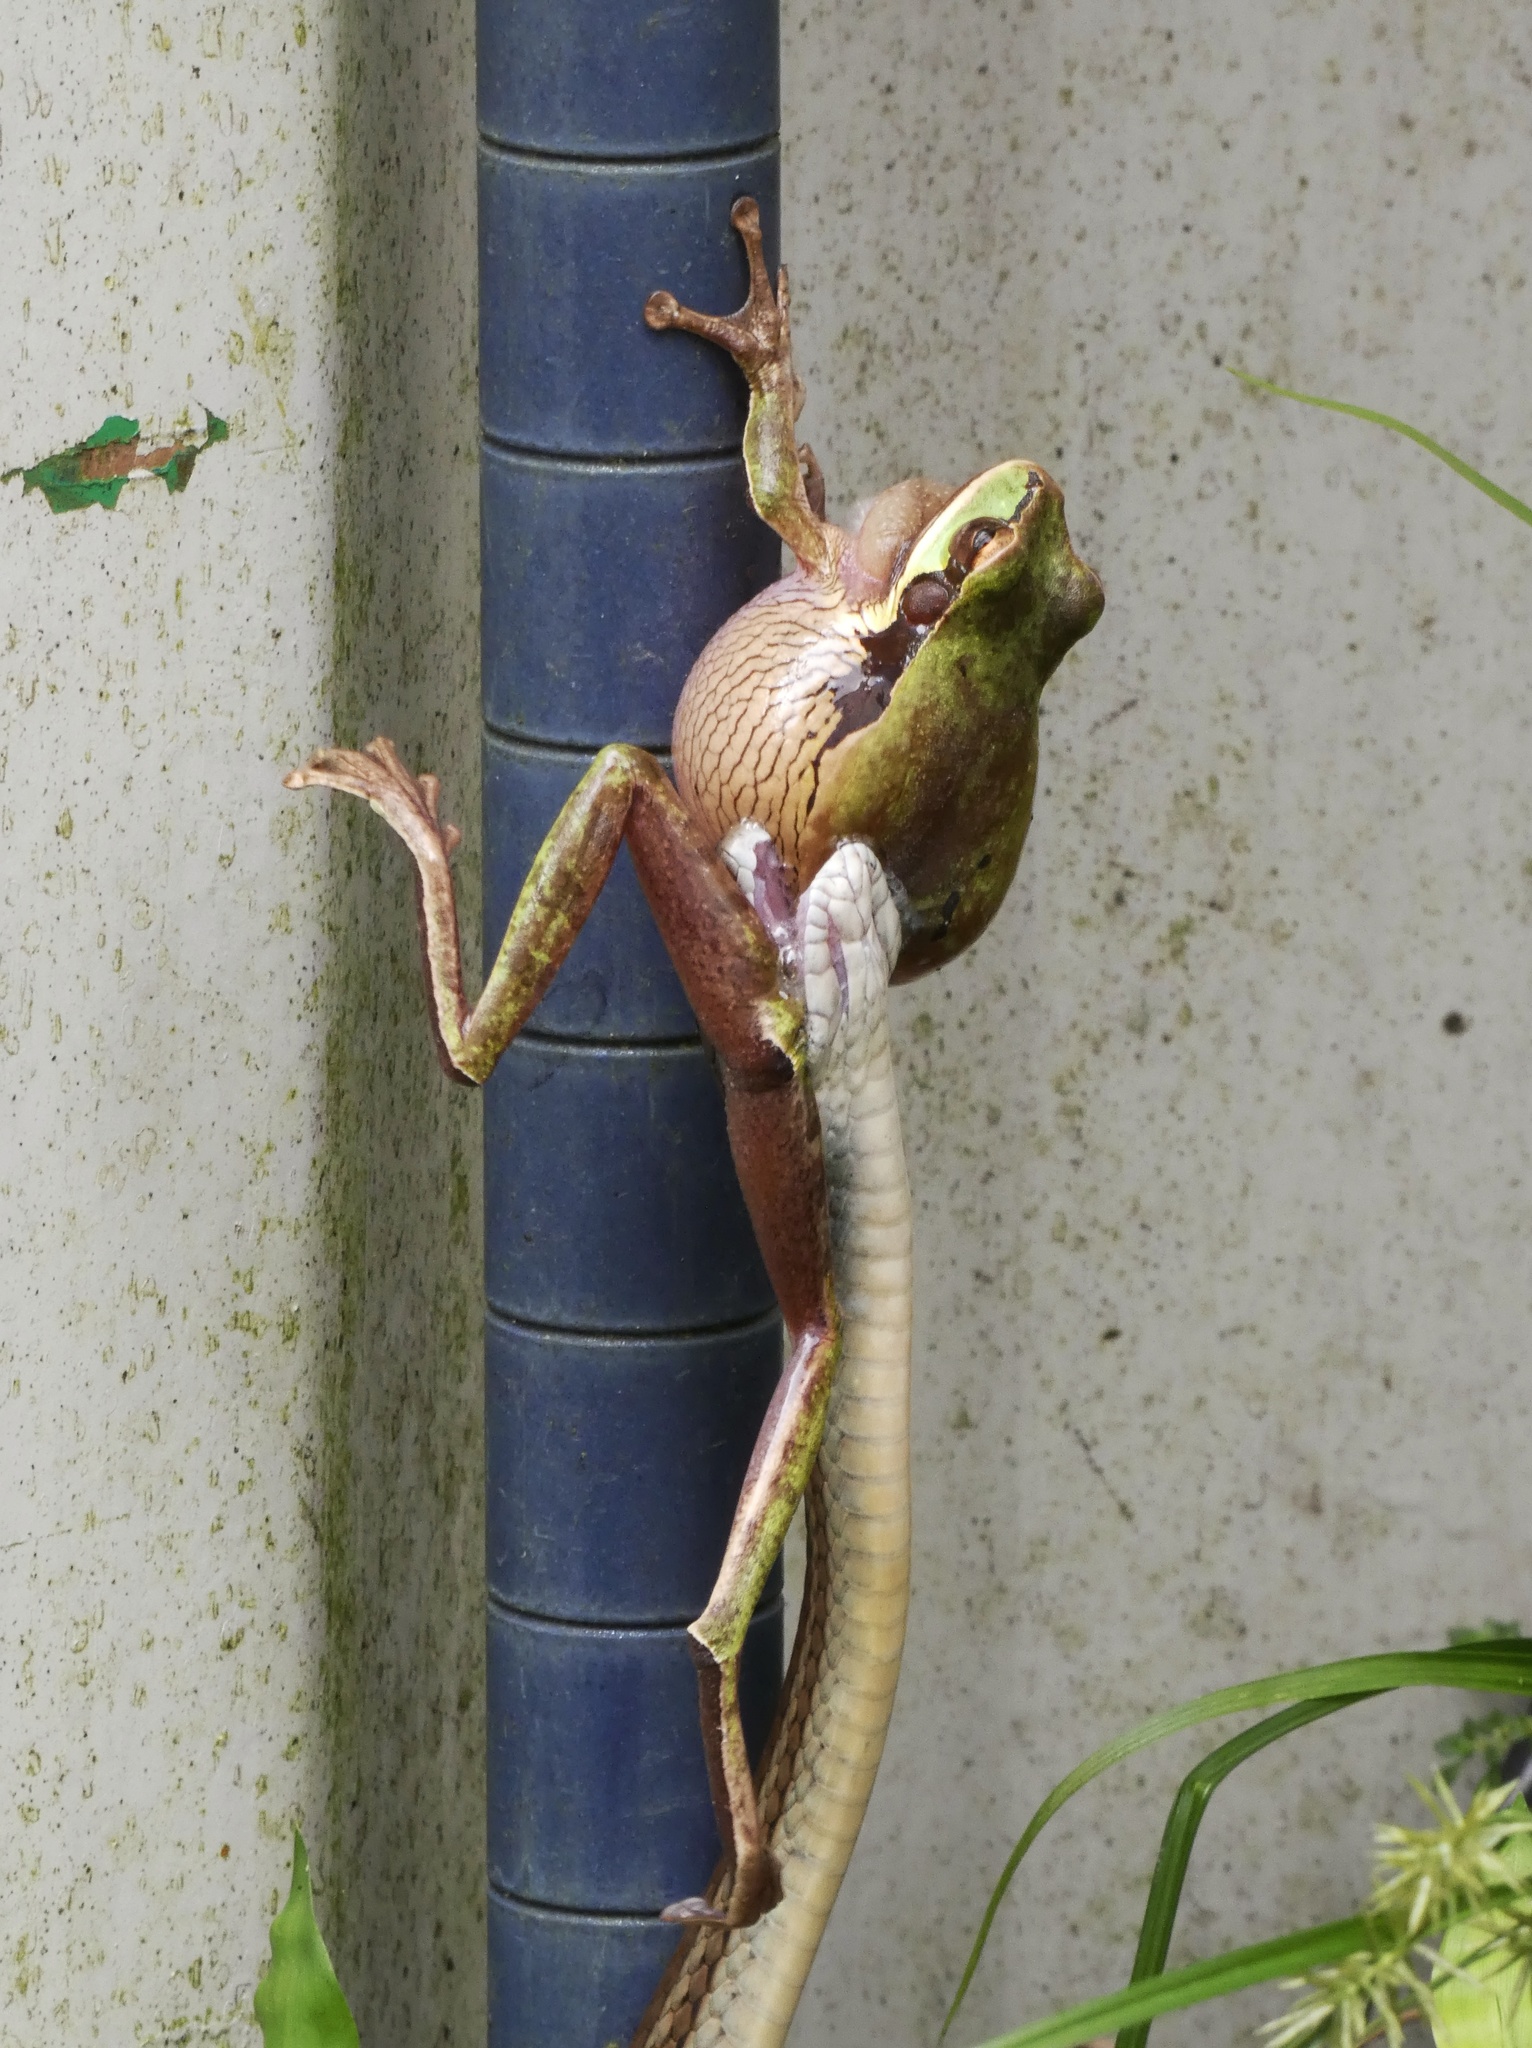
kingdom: Animalia
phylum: Chordata
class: Amphibia
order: Anura
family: Hylidae
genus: Smilisca
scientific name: Smilisca phaeota
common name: Central american smilisca
